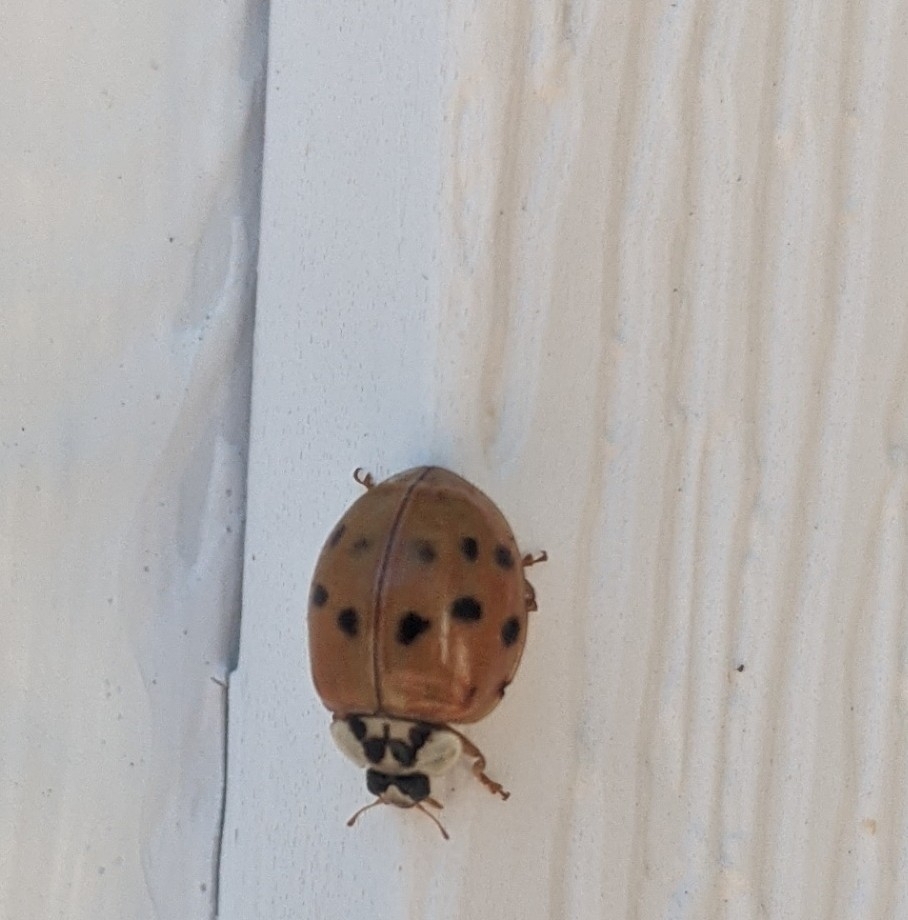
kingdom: Animalia
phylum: Arthropoda
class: Insecta
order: Coleoptera
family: Coccinellidae
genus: Harmonia
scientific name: Harmonia axyridis
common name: Harlequin ladybird
